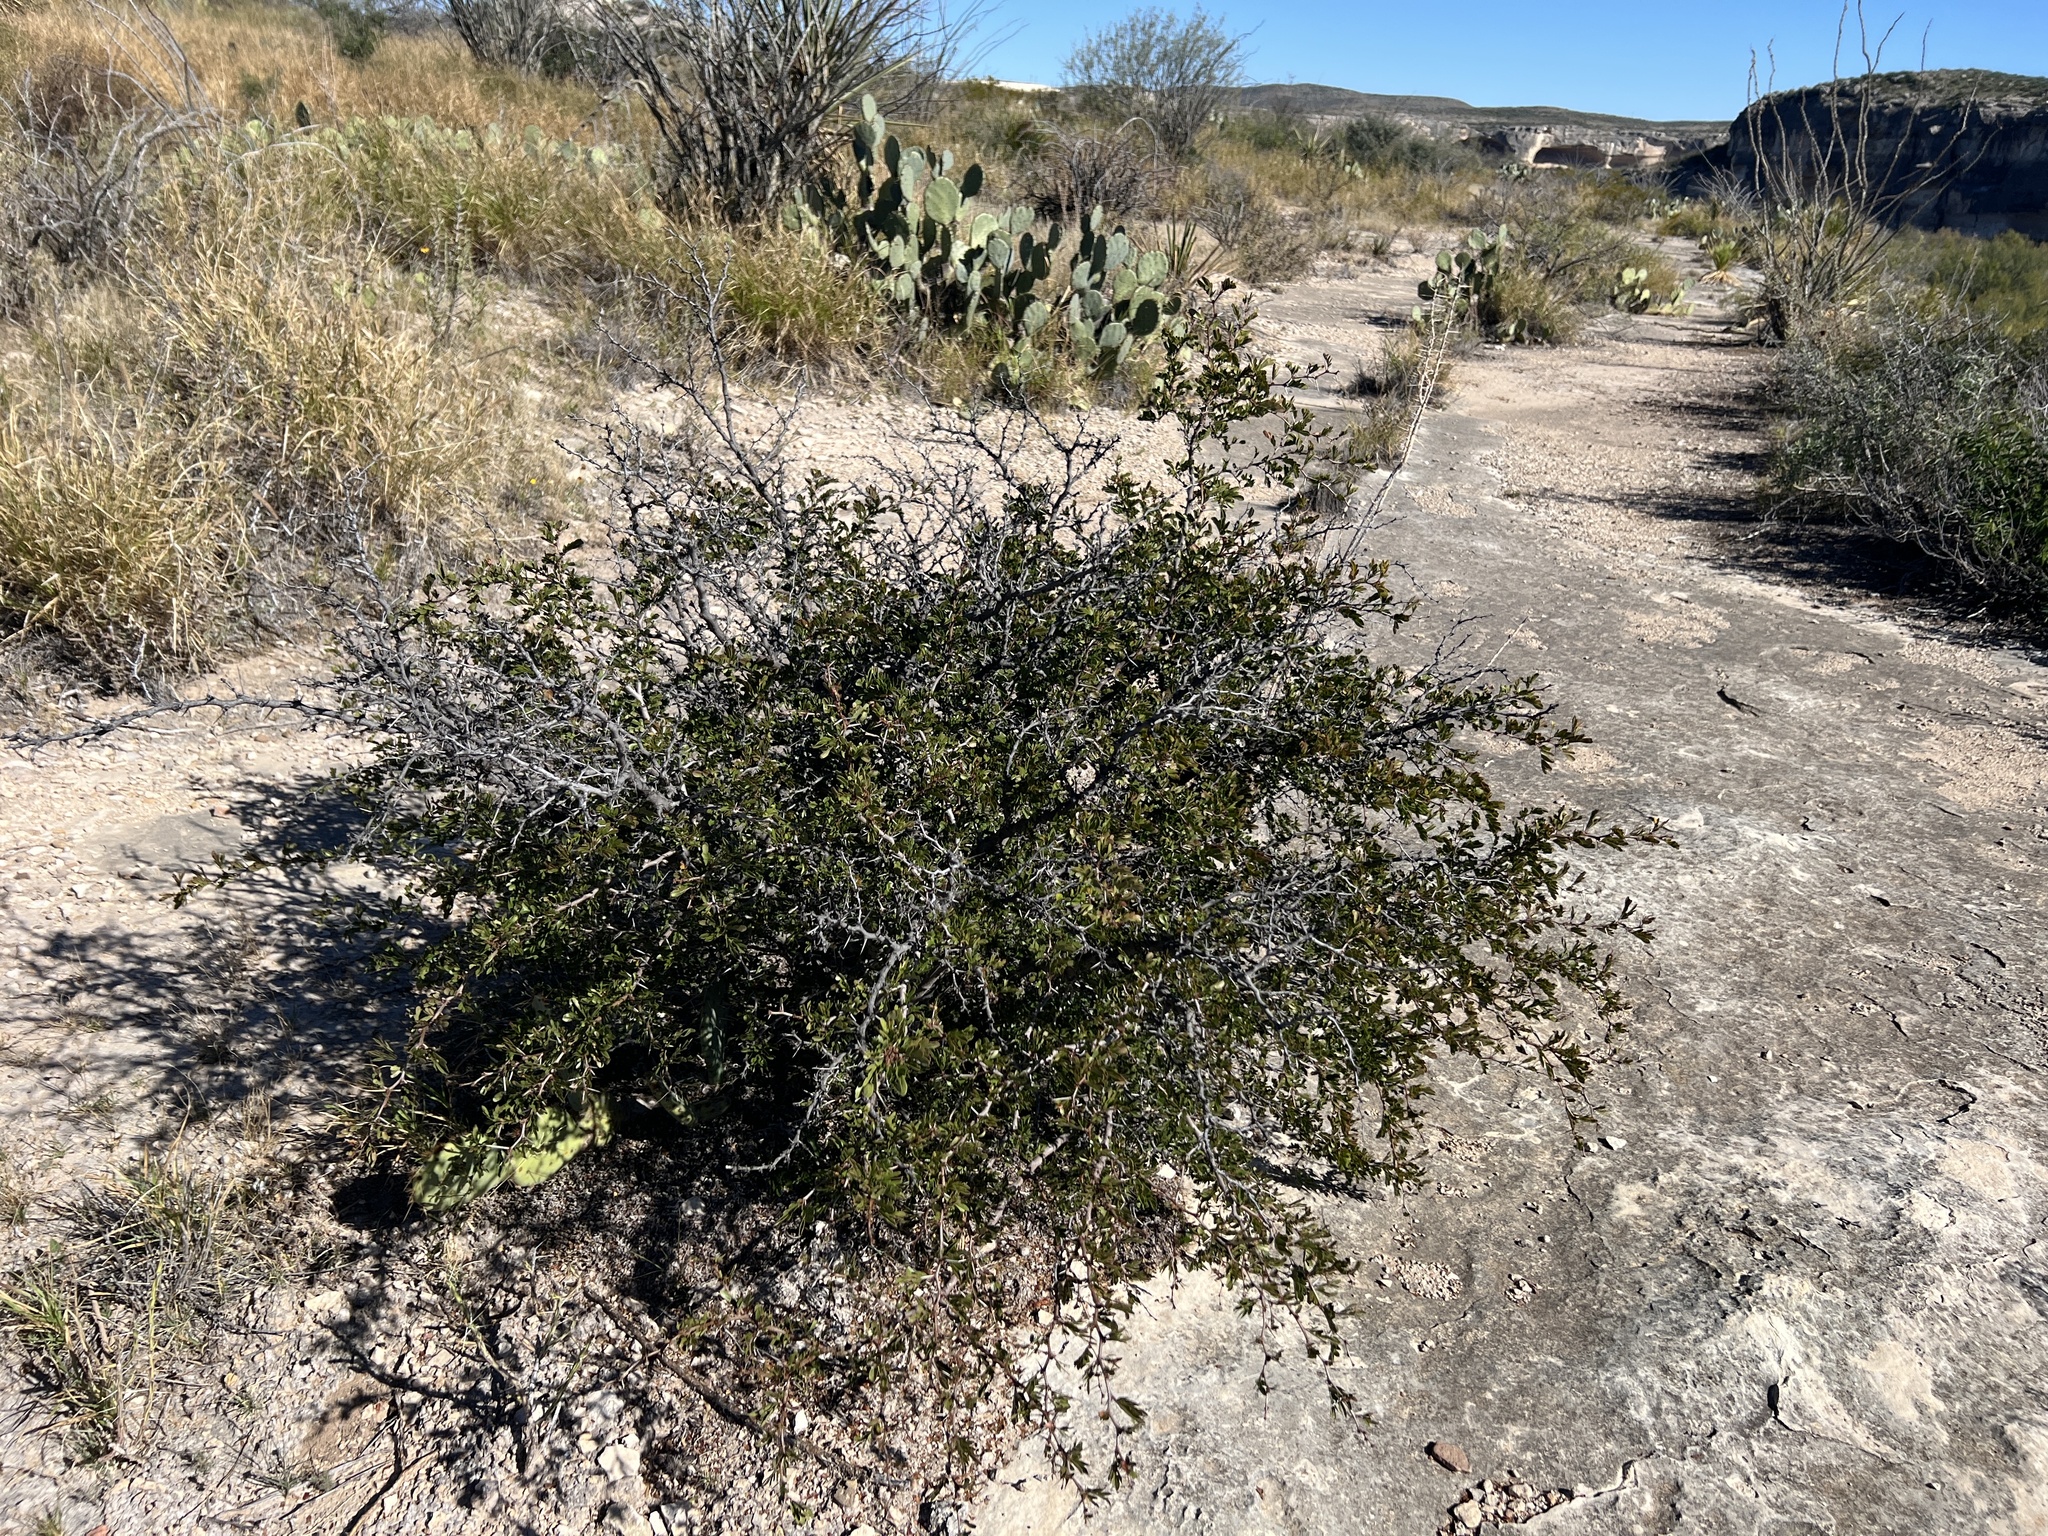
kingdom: Plantae
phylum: Tracheophyta
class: Magnoliopsida
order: Fabales
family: Fabaceae
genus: Vachellia
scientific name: Vachellia rigidula
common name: Blackbrush
